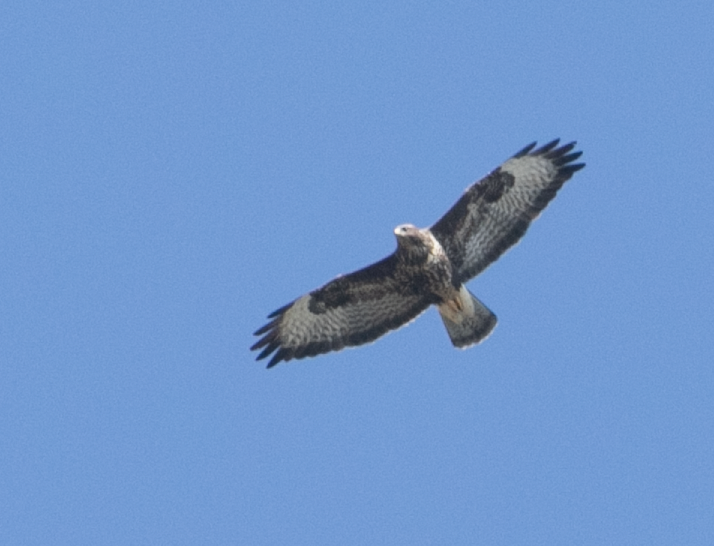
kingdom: Animalia
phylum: Chordata
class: Aves
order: Accipitriformes
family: Accipitridae
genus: Buteo
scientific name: Buteo buteo
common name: Common buzzard
